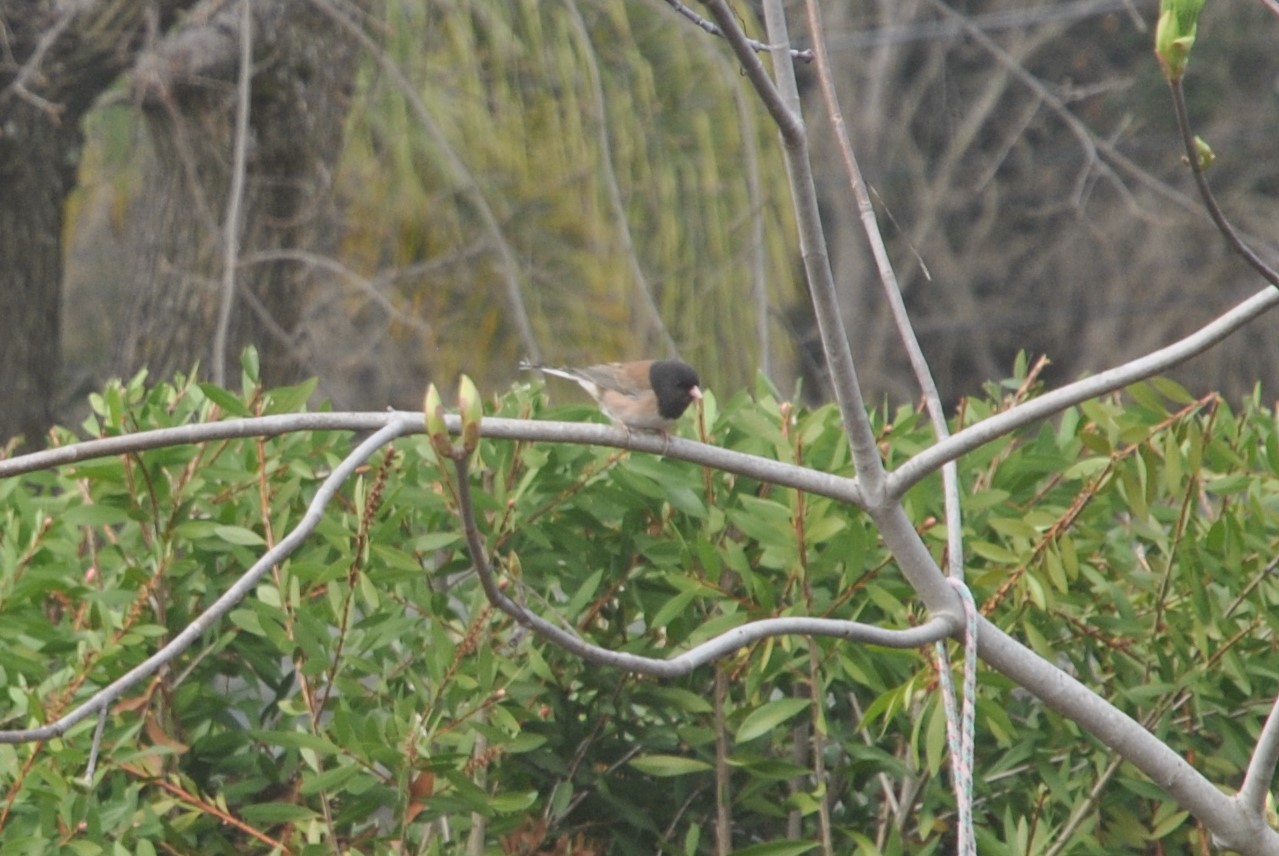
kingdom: Animalia
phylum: Chordata
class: Aves
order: Passeriformes
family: Passerellidae
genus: Junco
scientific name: Junco hyemalis
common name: Dark-eyed junco
